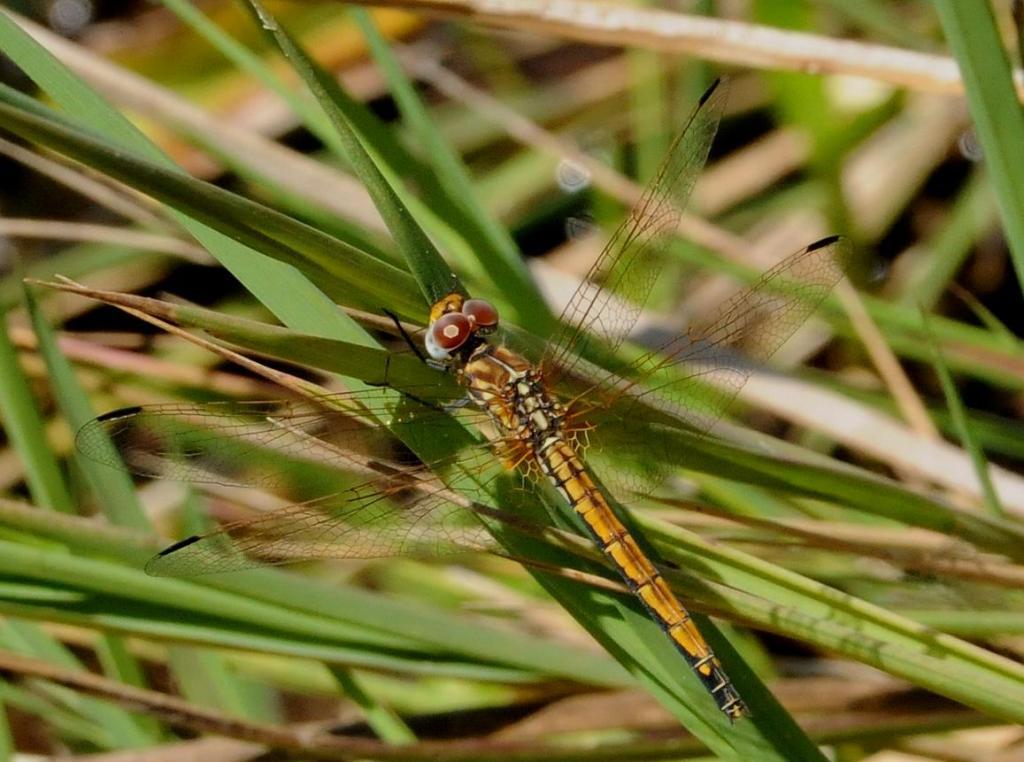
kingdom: Animalia
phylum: Arthropoda
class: Insecta
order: Odonata
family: Libellulidae
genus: Trithemis
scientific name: Trithemis arteriosa
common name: Red-veined dropwing
